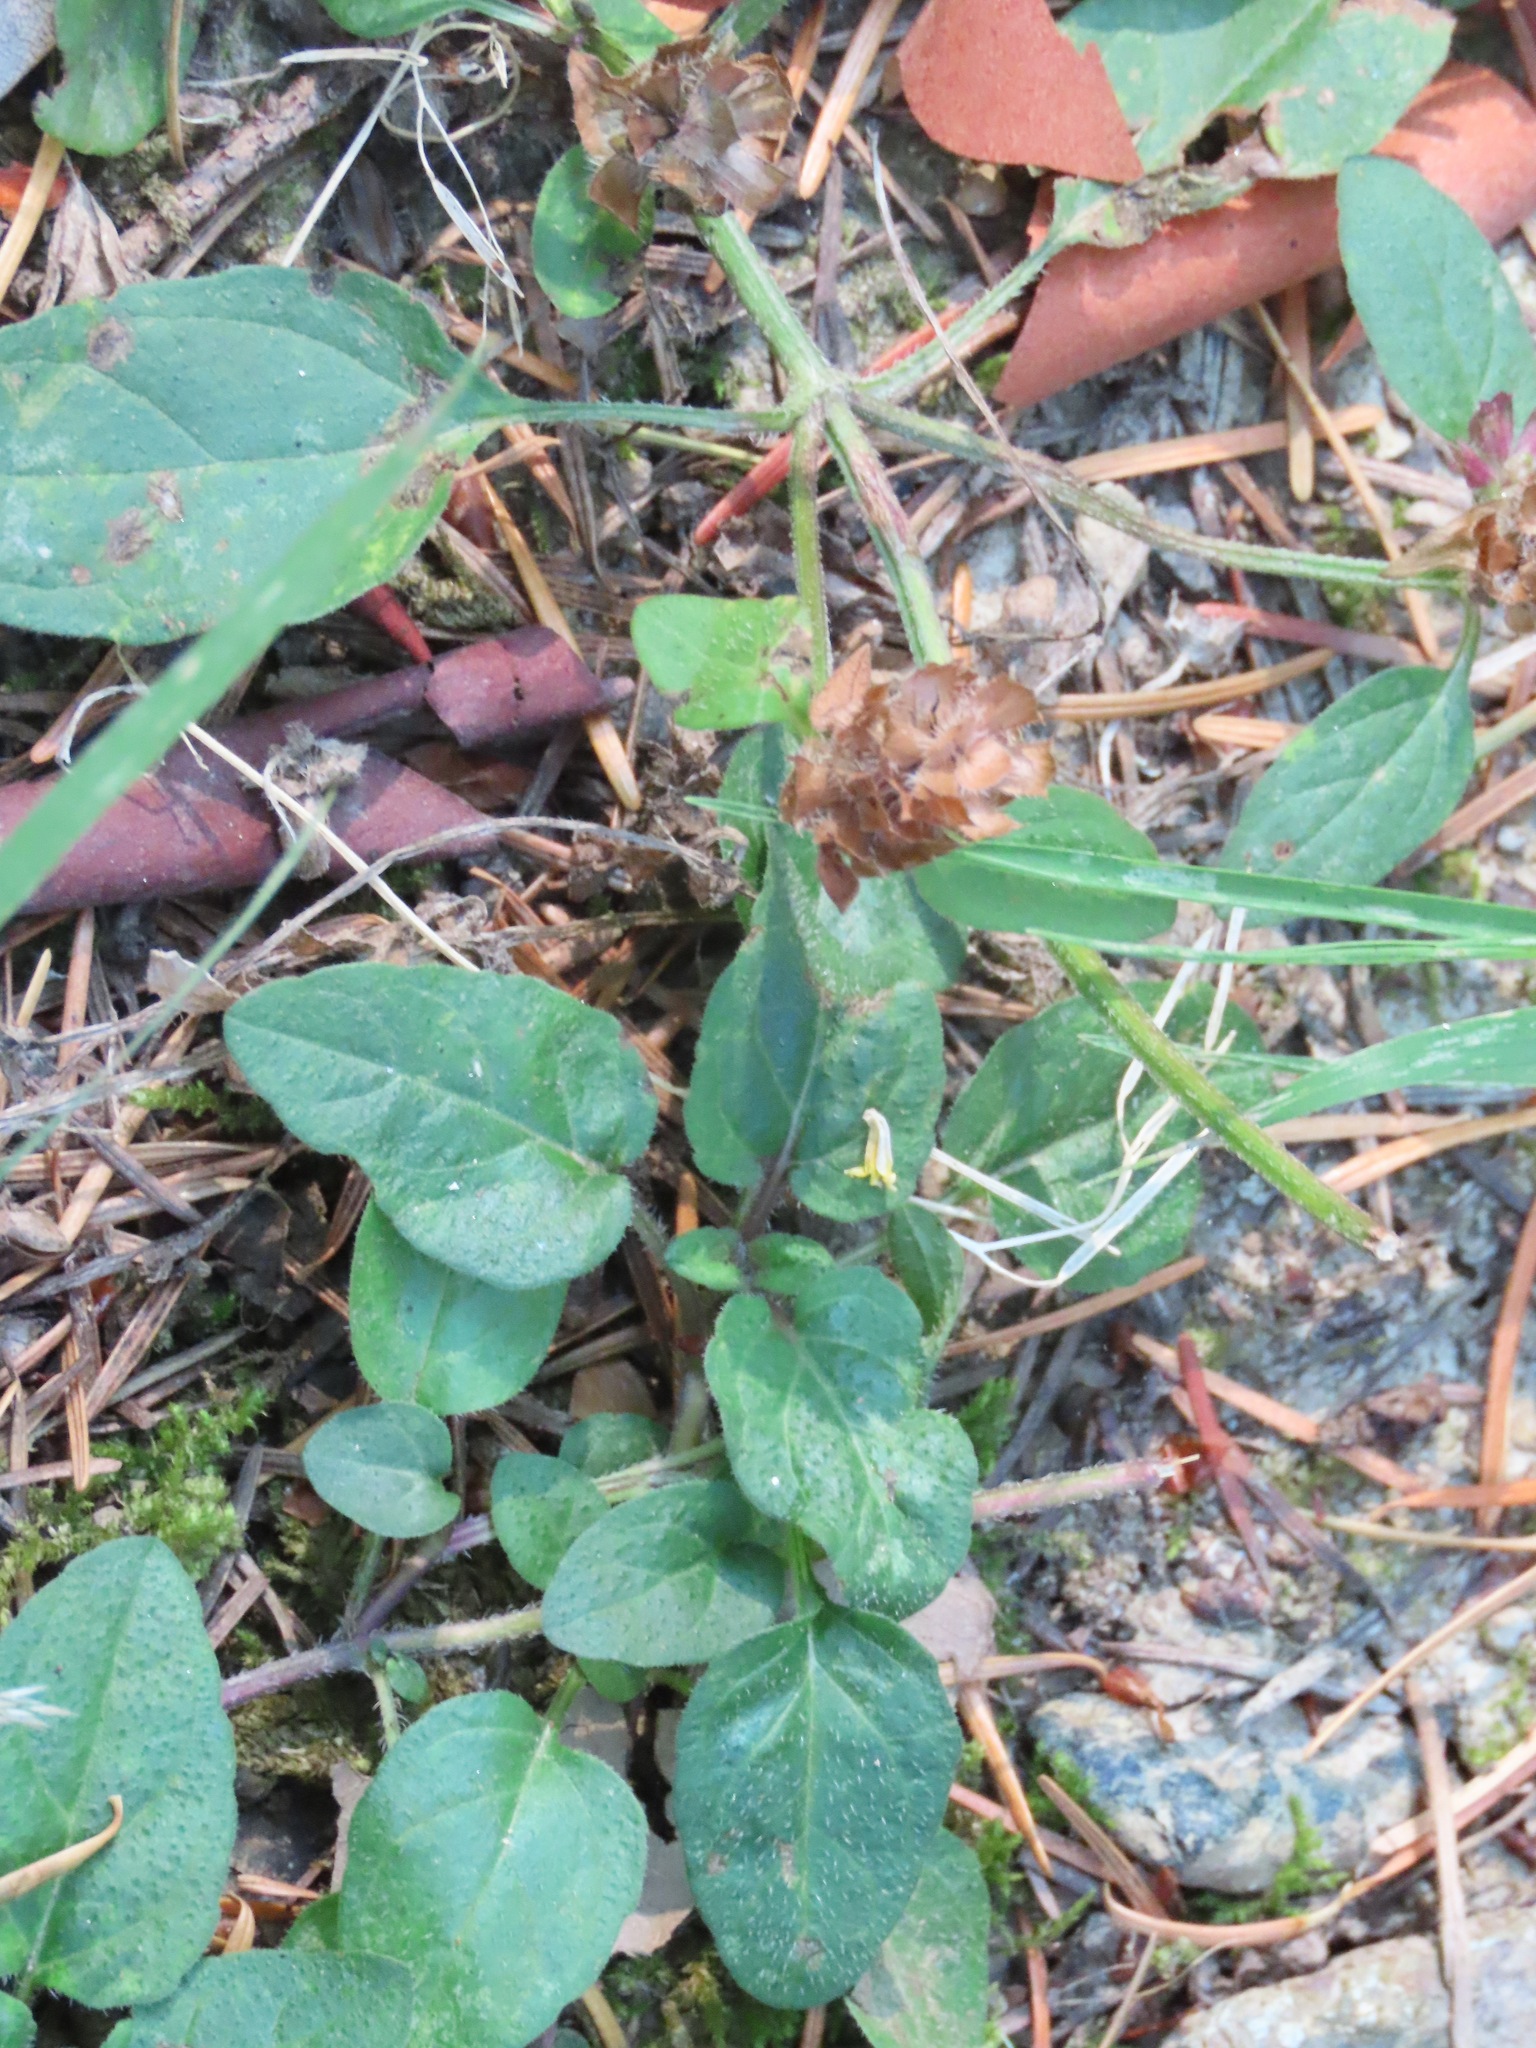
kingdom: Plantae
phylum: Tracheophyta
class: Magnoliopsida
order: Lamiales
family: Lamiaceae
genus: Prunella
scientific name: Prunella vulgaris
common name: Heal-all
